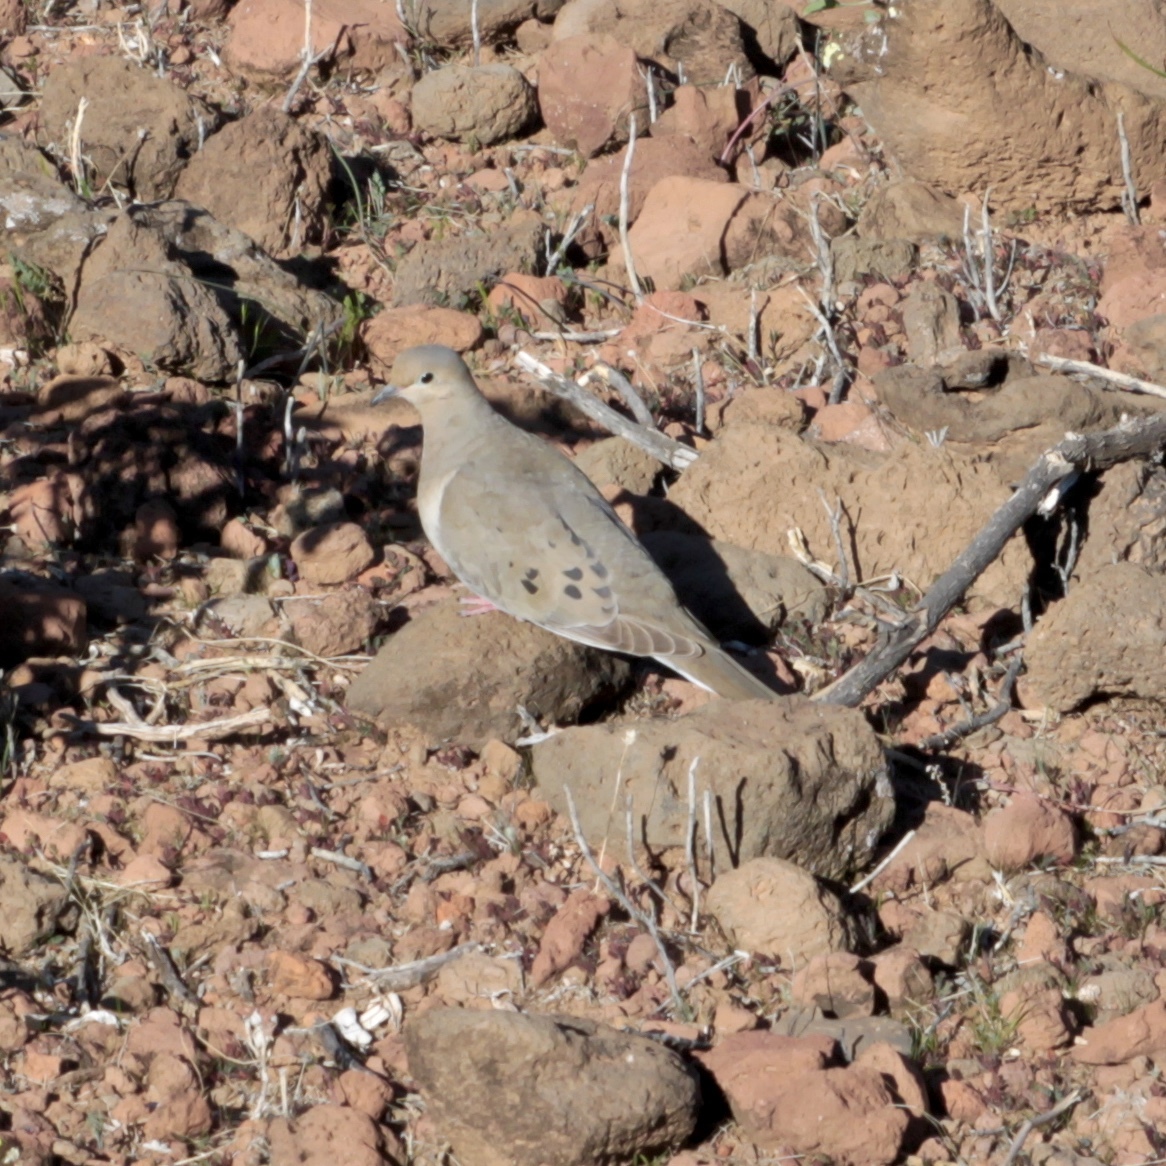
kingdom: Animalia
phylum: Chordata
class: Aves
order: Columbiformes
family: Columbidae
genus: Zenaida
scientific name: Zenaida macroura
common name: Mourning dove
